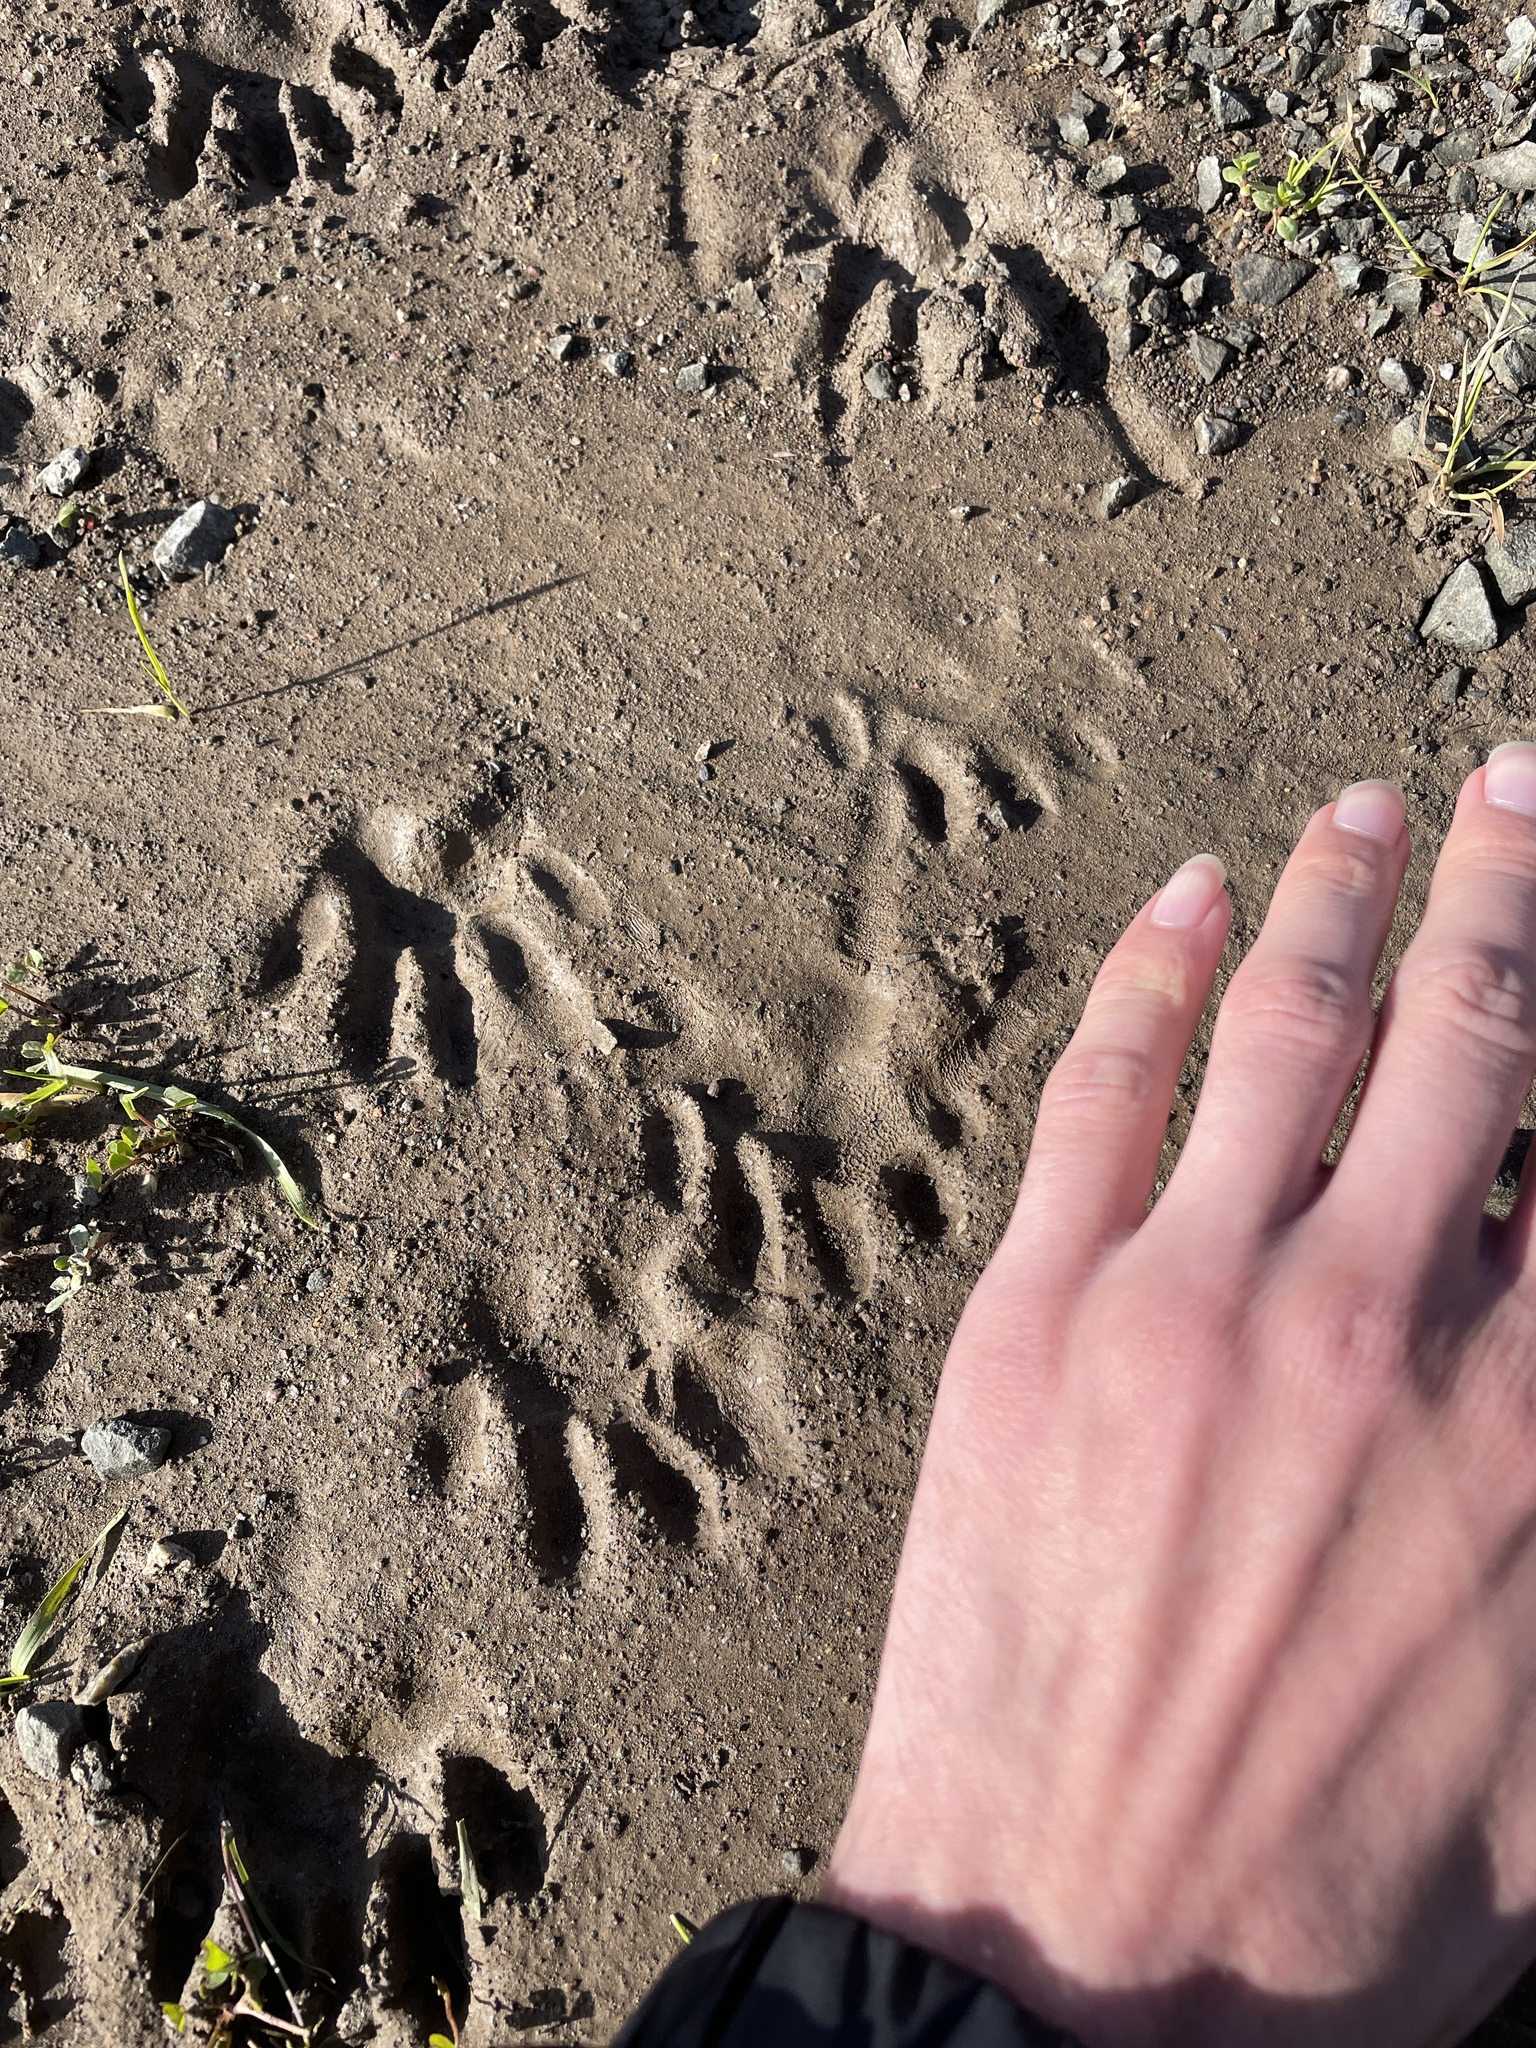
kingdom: Animalia
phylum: Chordata
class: Mammalia
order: Carnivora
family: Procyonidae
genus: Procyon
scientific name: Procyon lotor
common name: Raccoon
